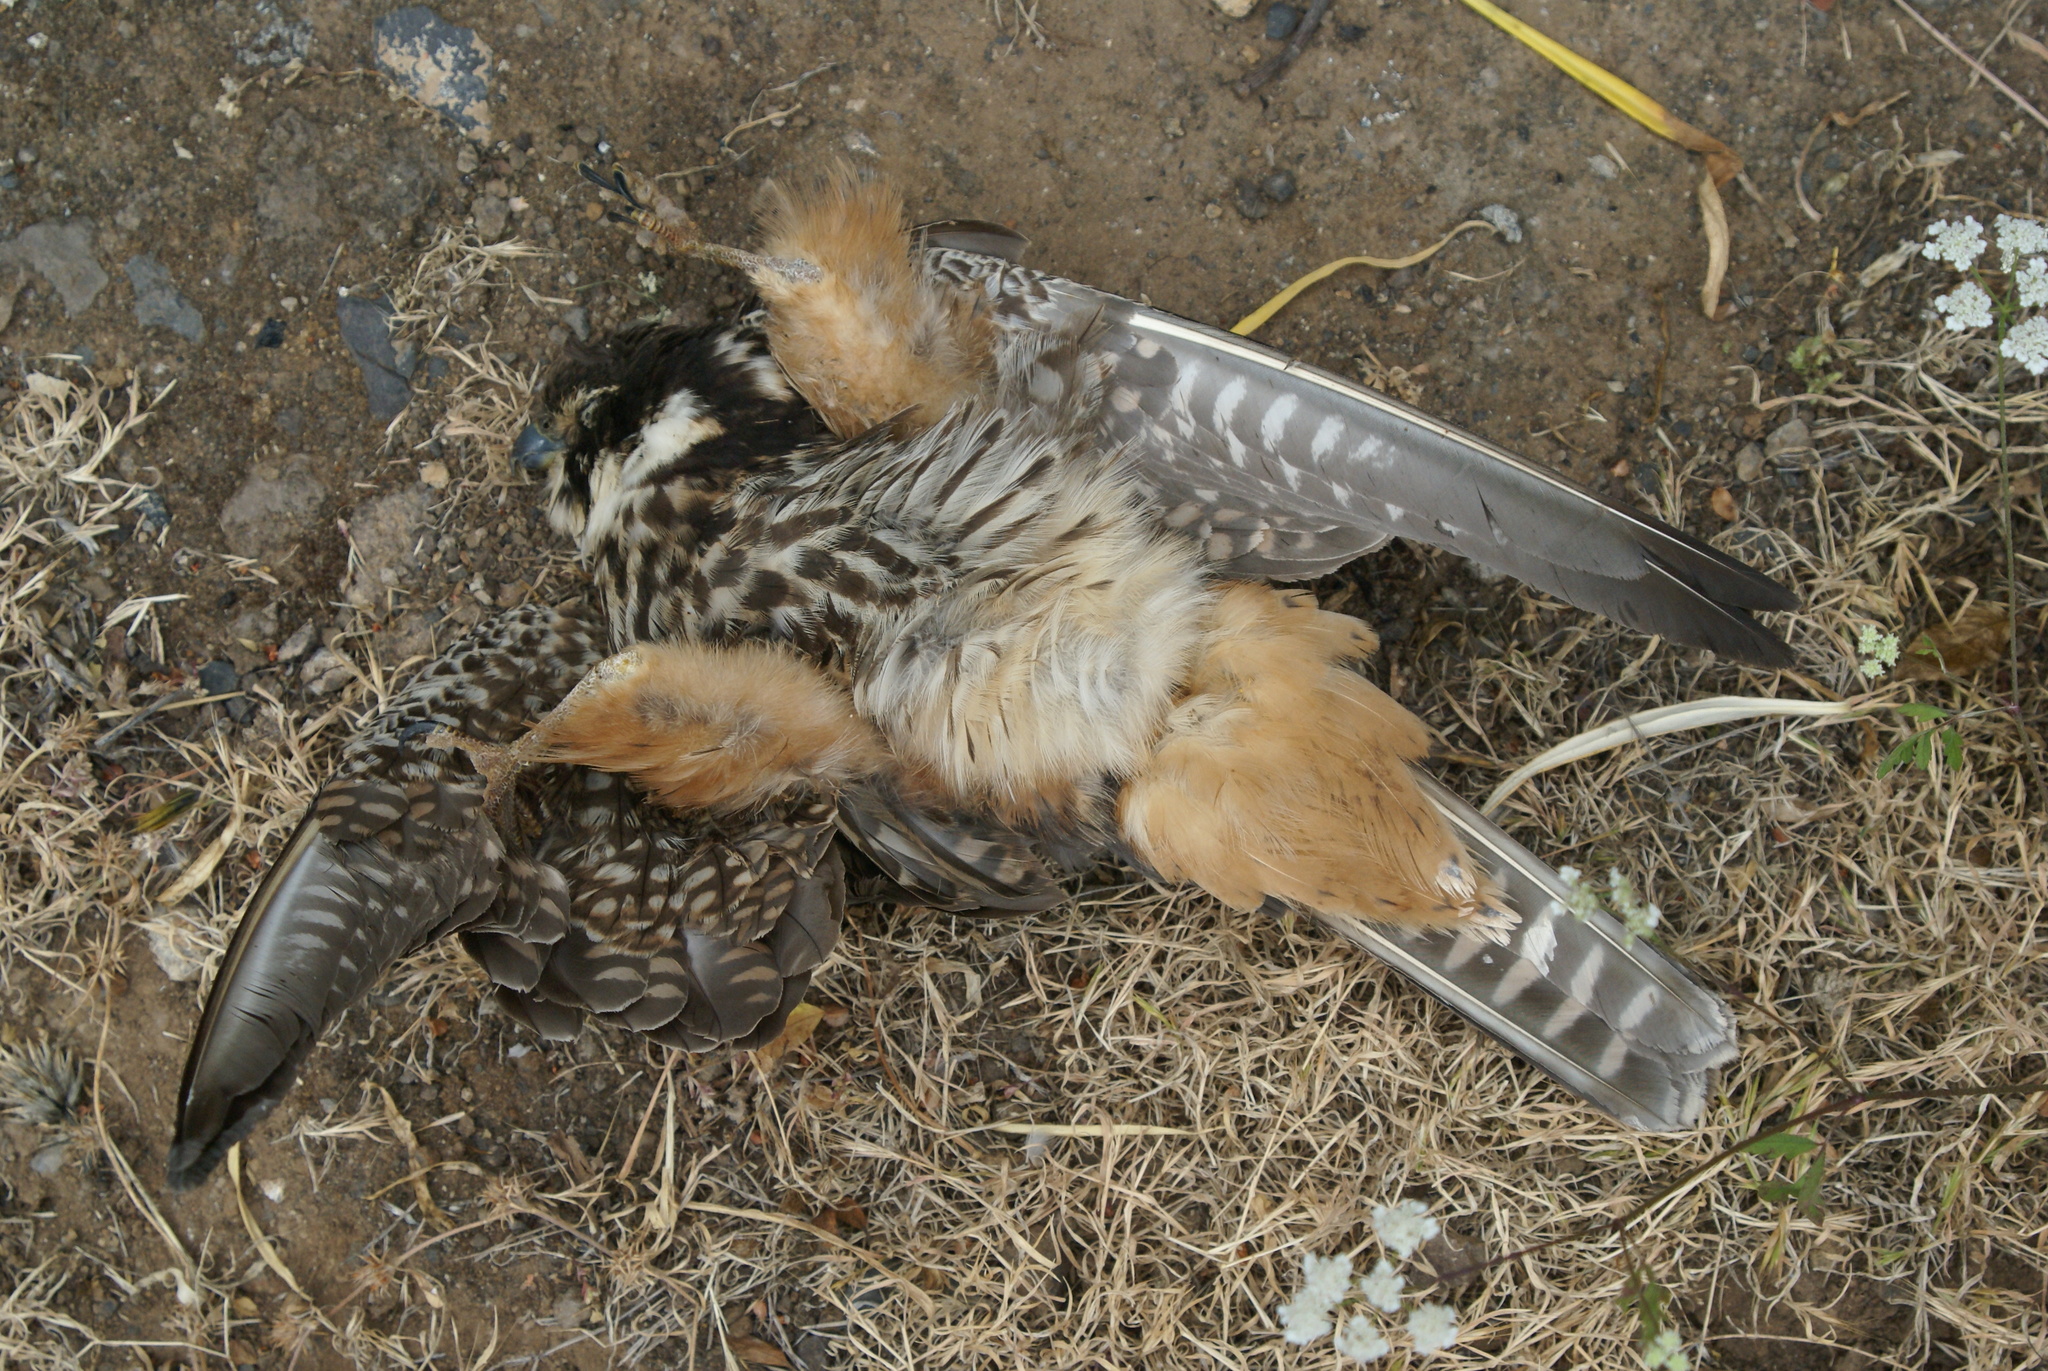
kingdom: Animalia
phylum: Chordata
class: Aves
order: Falconiformes
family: Falconidae
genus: Falco
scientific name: Falco subbuteo
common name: Eurasian hobby
